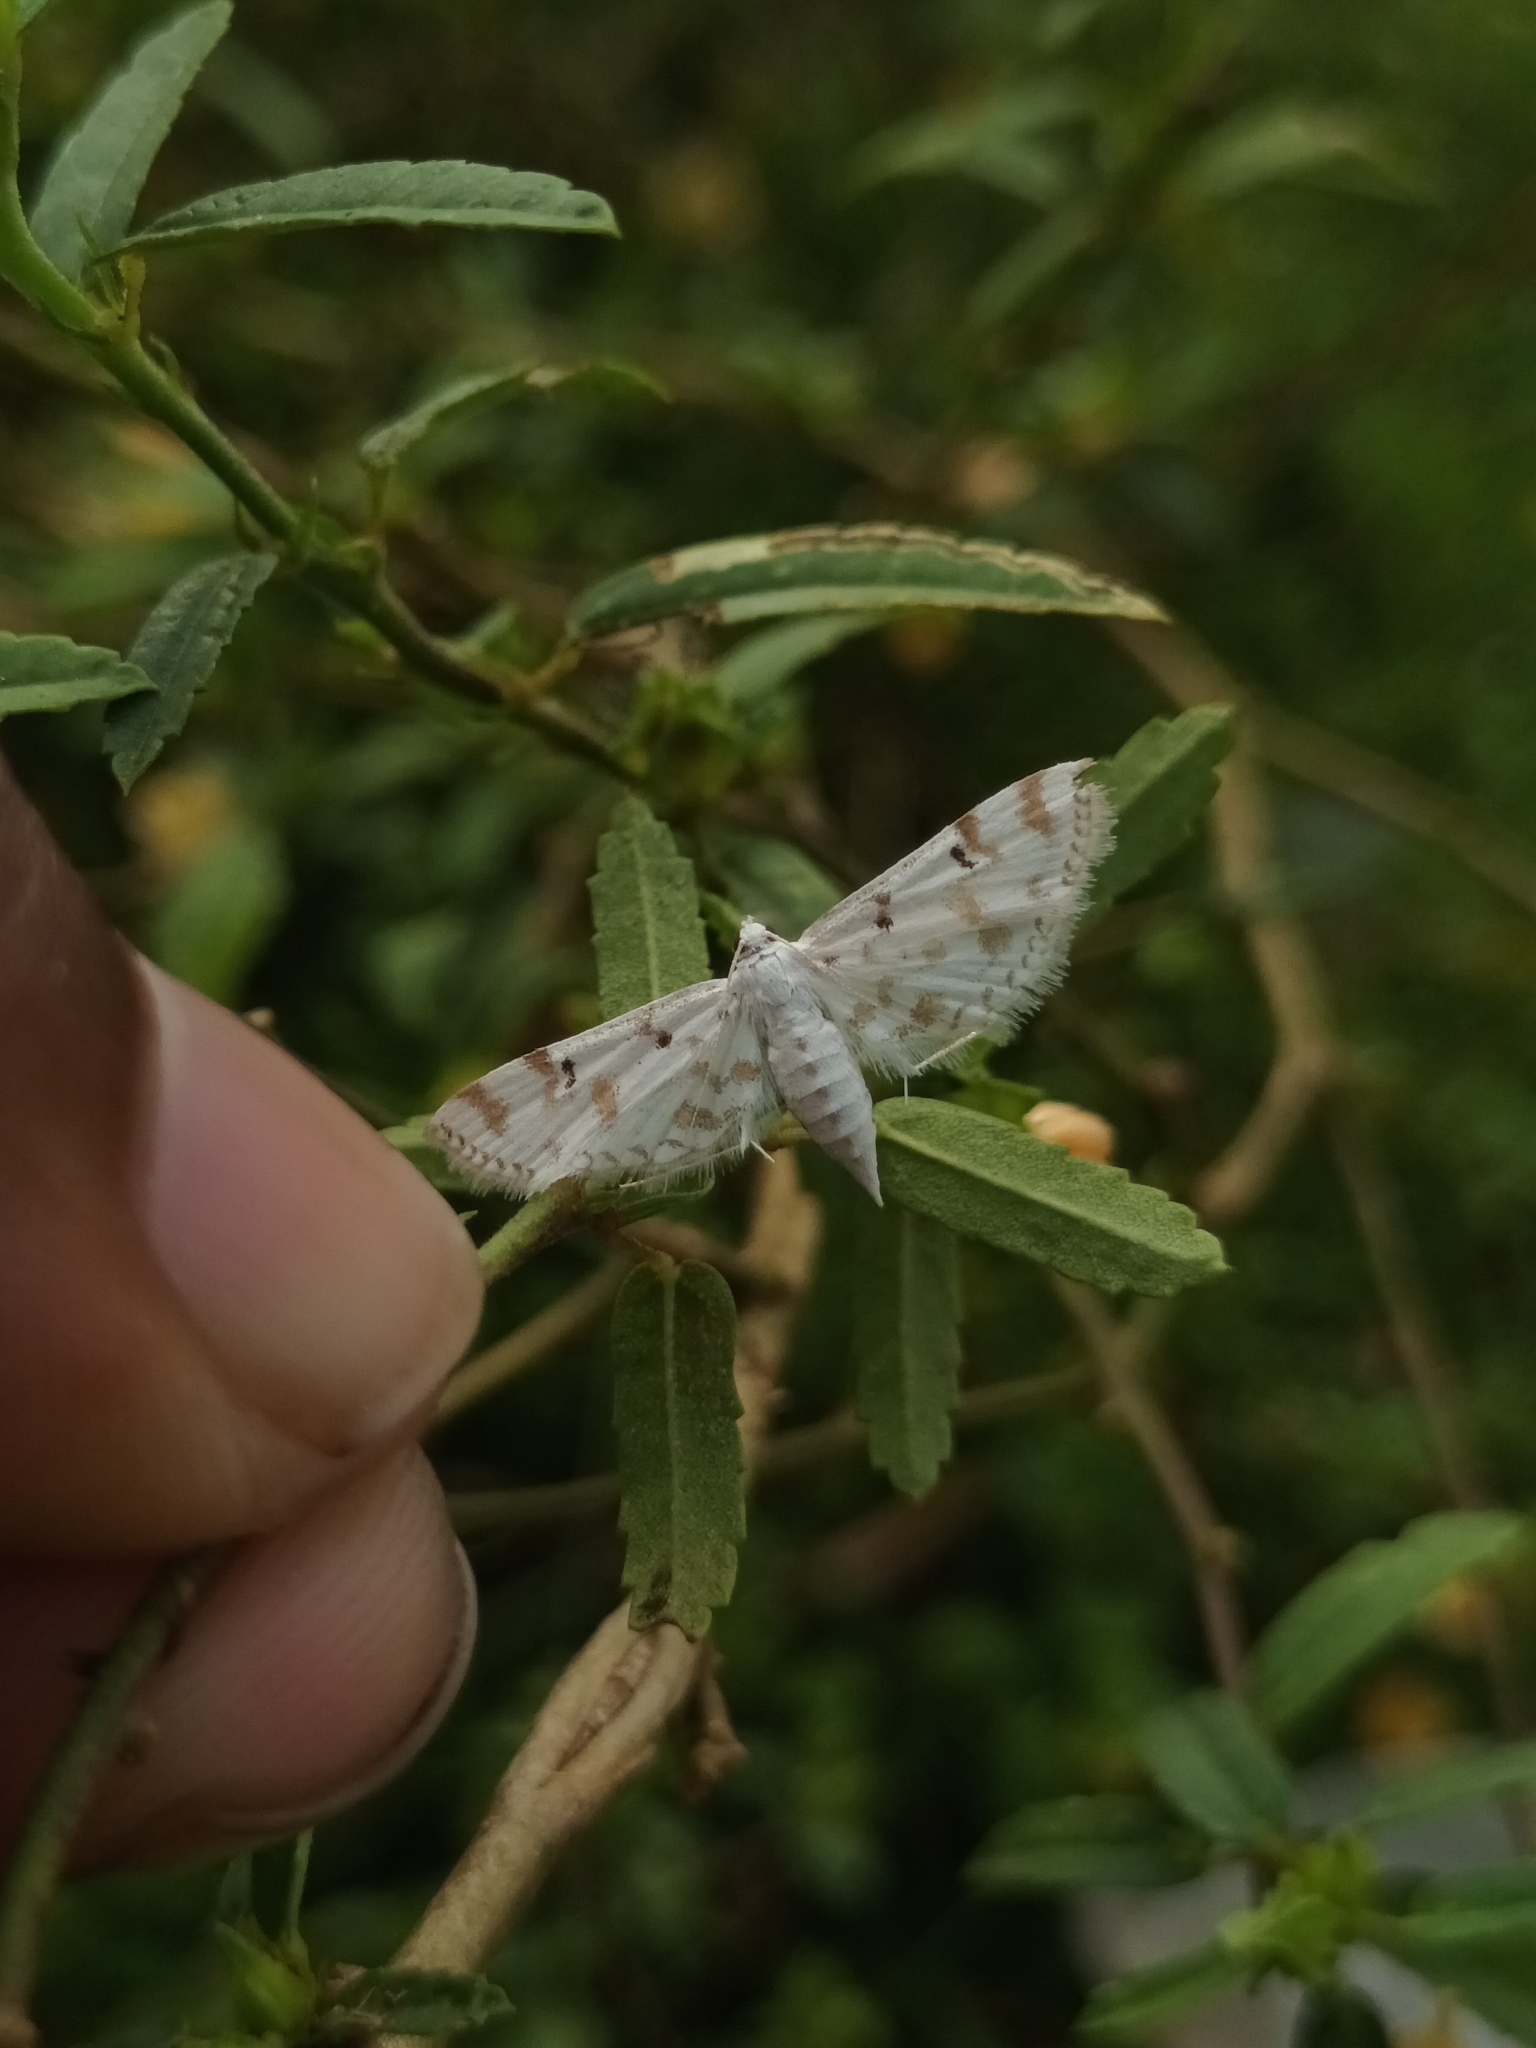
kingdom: Animalia
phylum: Arthropoda
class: Insecta
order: Lepidoptera
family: Crambidae
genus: Parapoynx
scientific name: Parapoynx stagnalis
